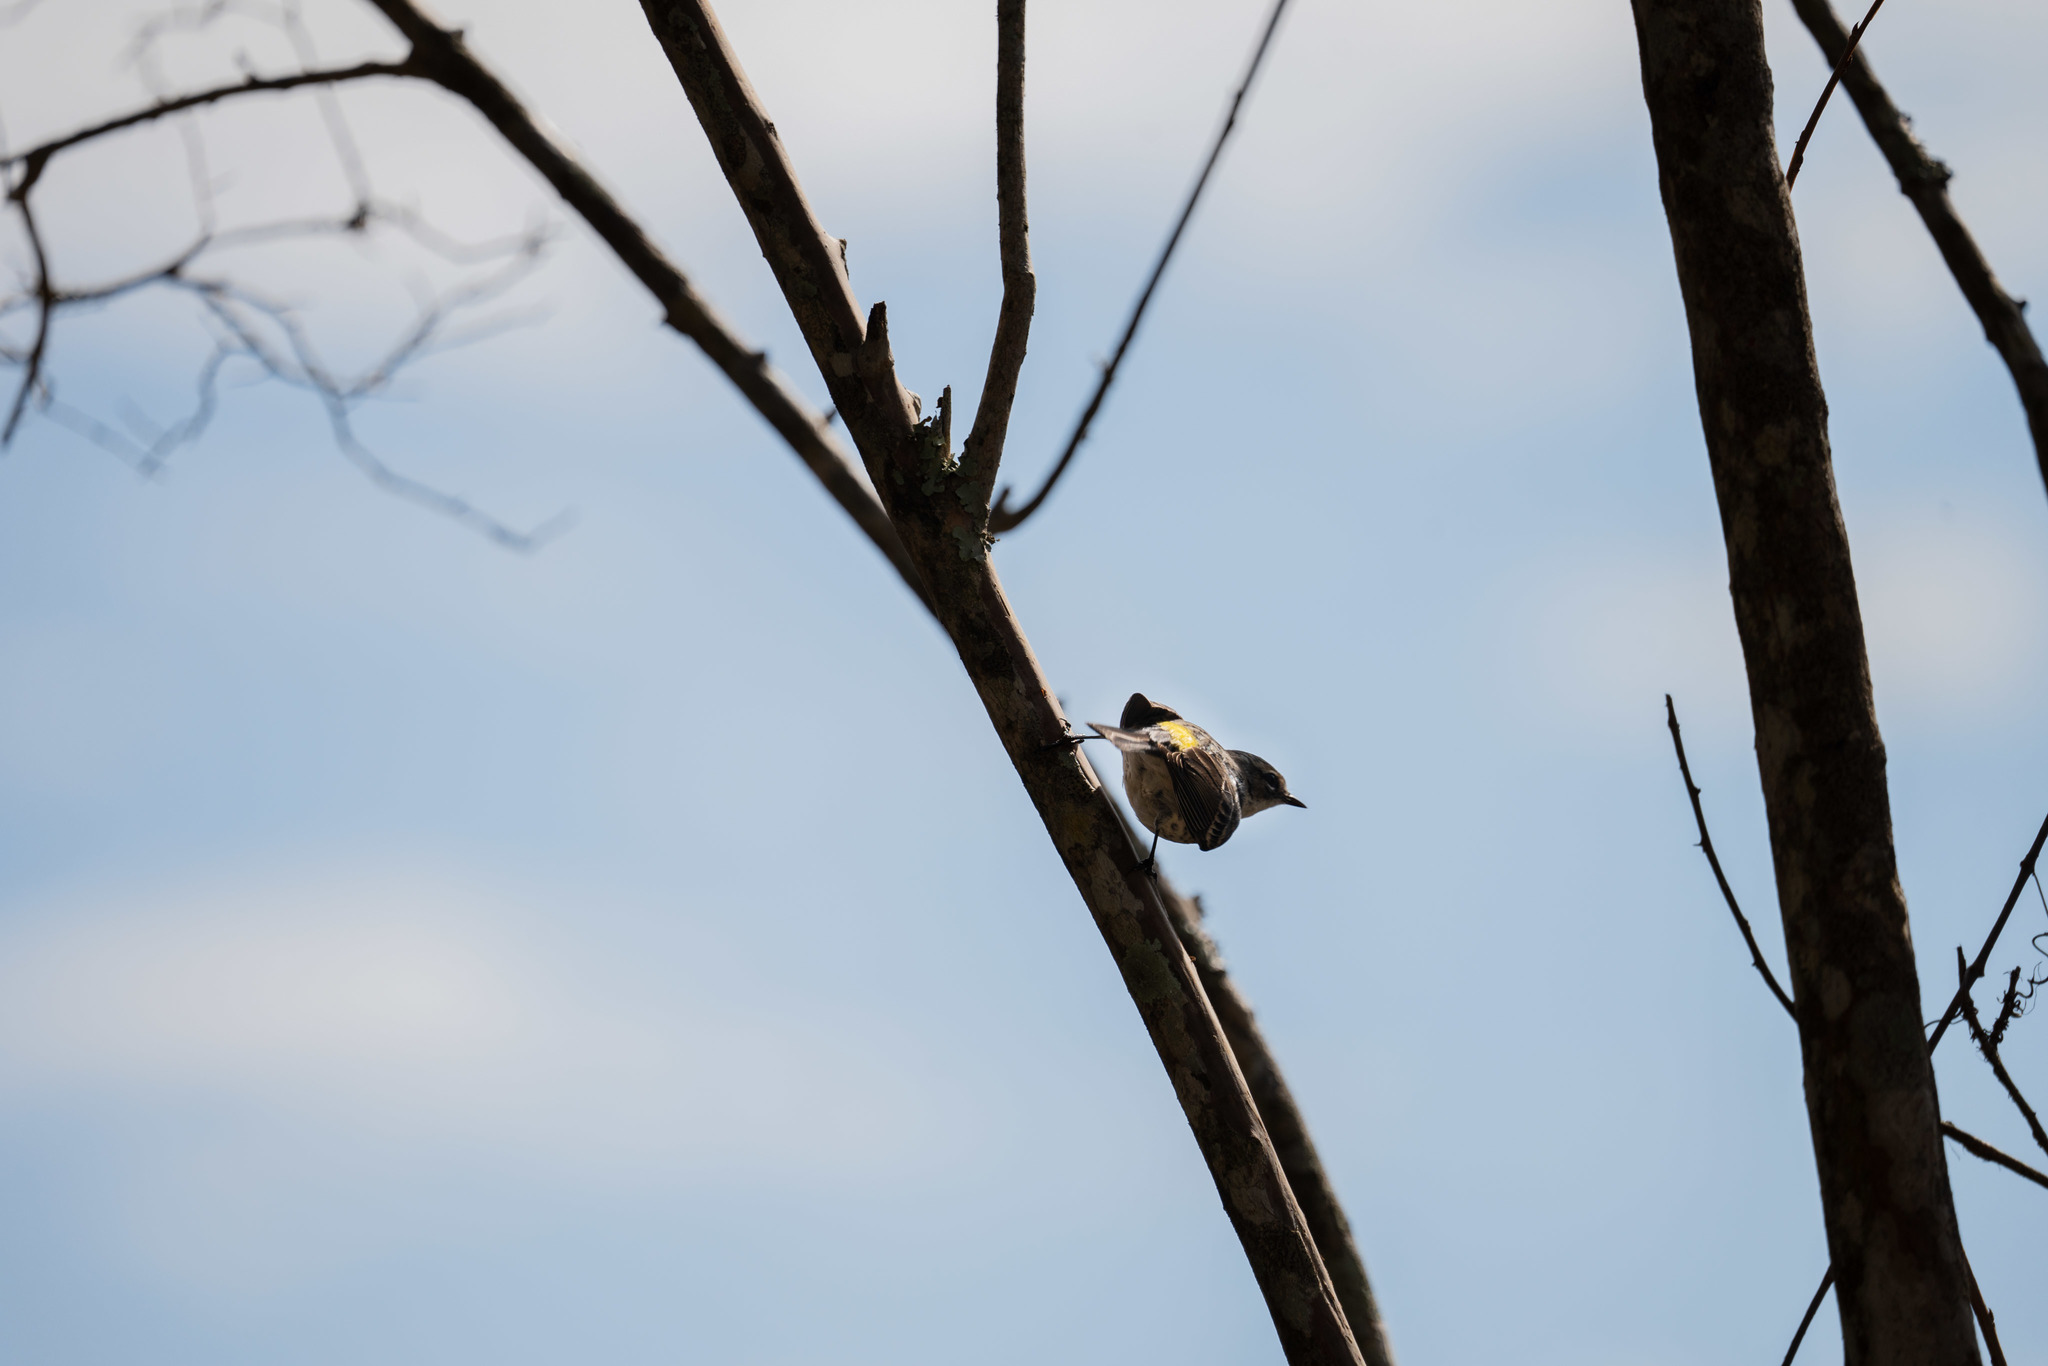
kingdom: Animalia
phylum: Chordata
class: Aves
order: Passeriformes
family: Parulidae
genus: Setophaga
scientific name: Setophaga coronata
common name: Myrtle warbler
